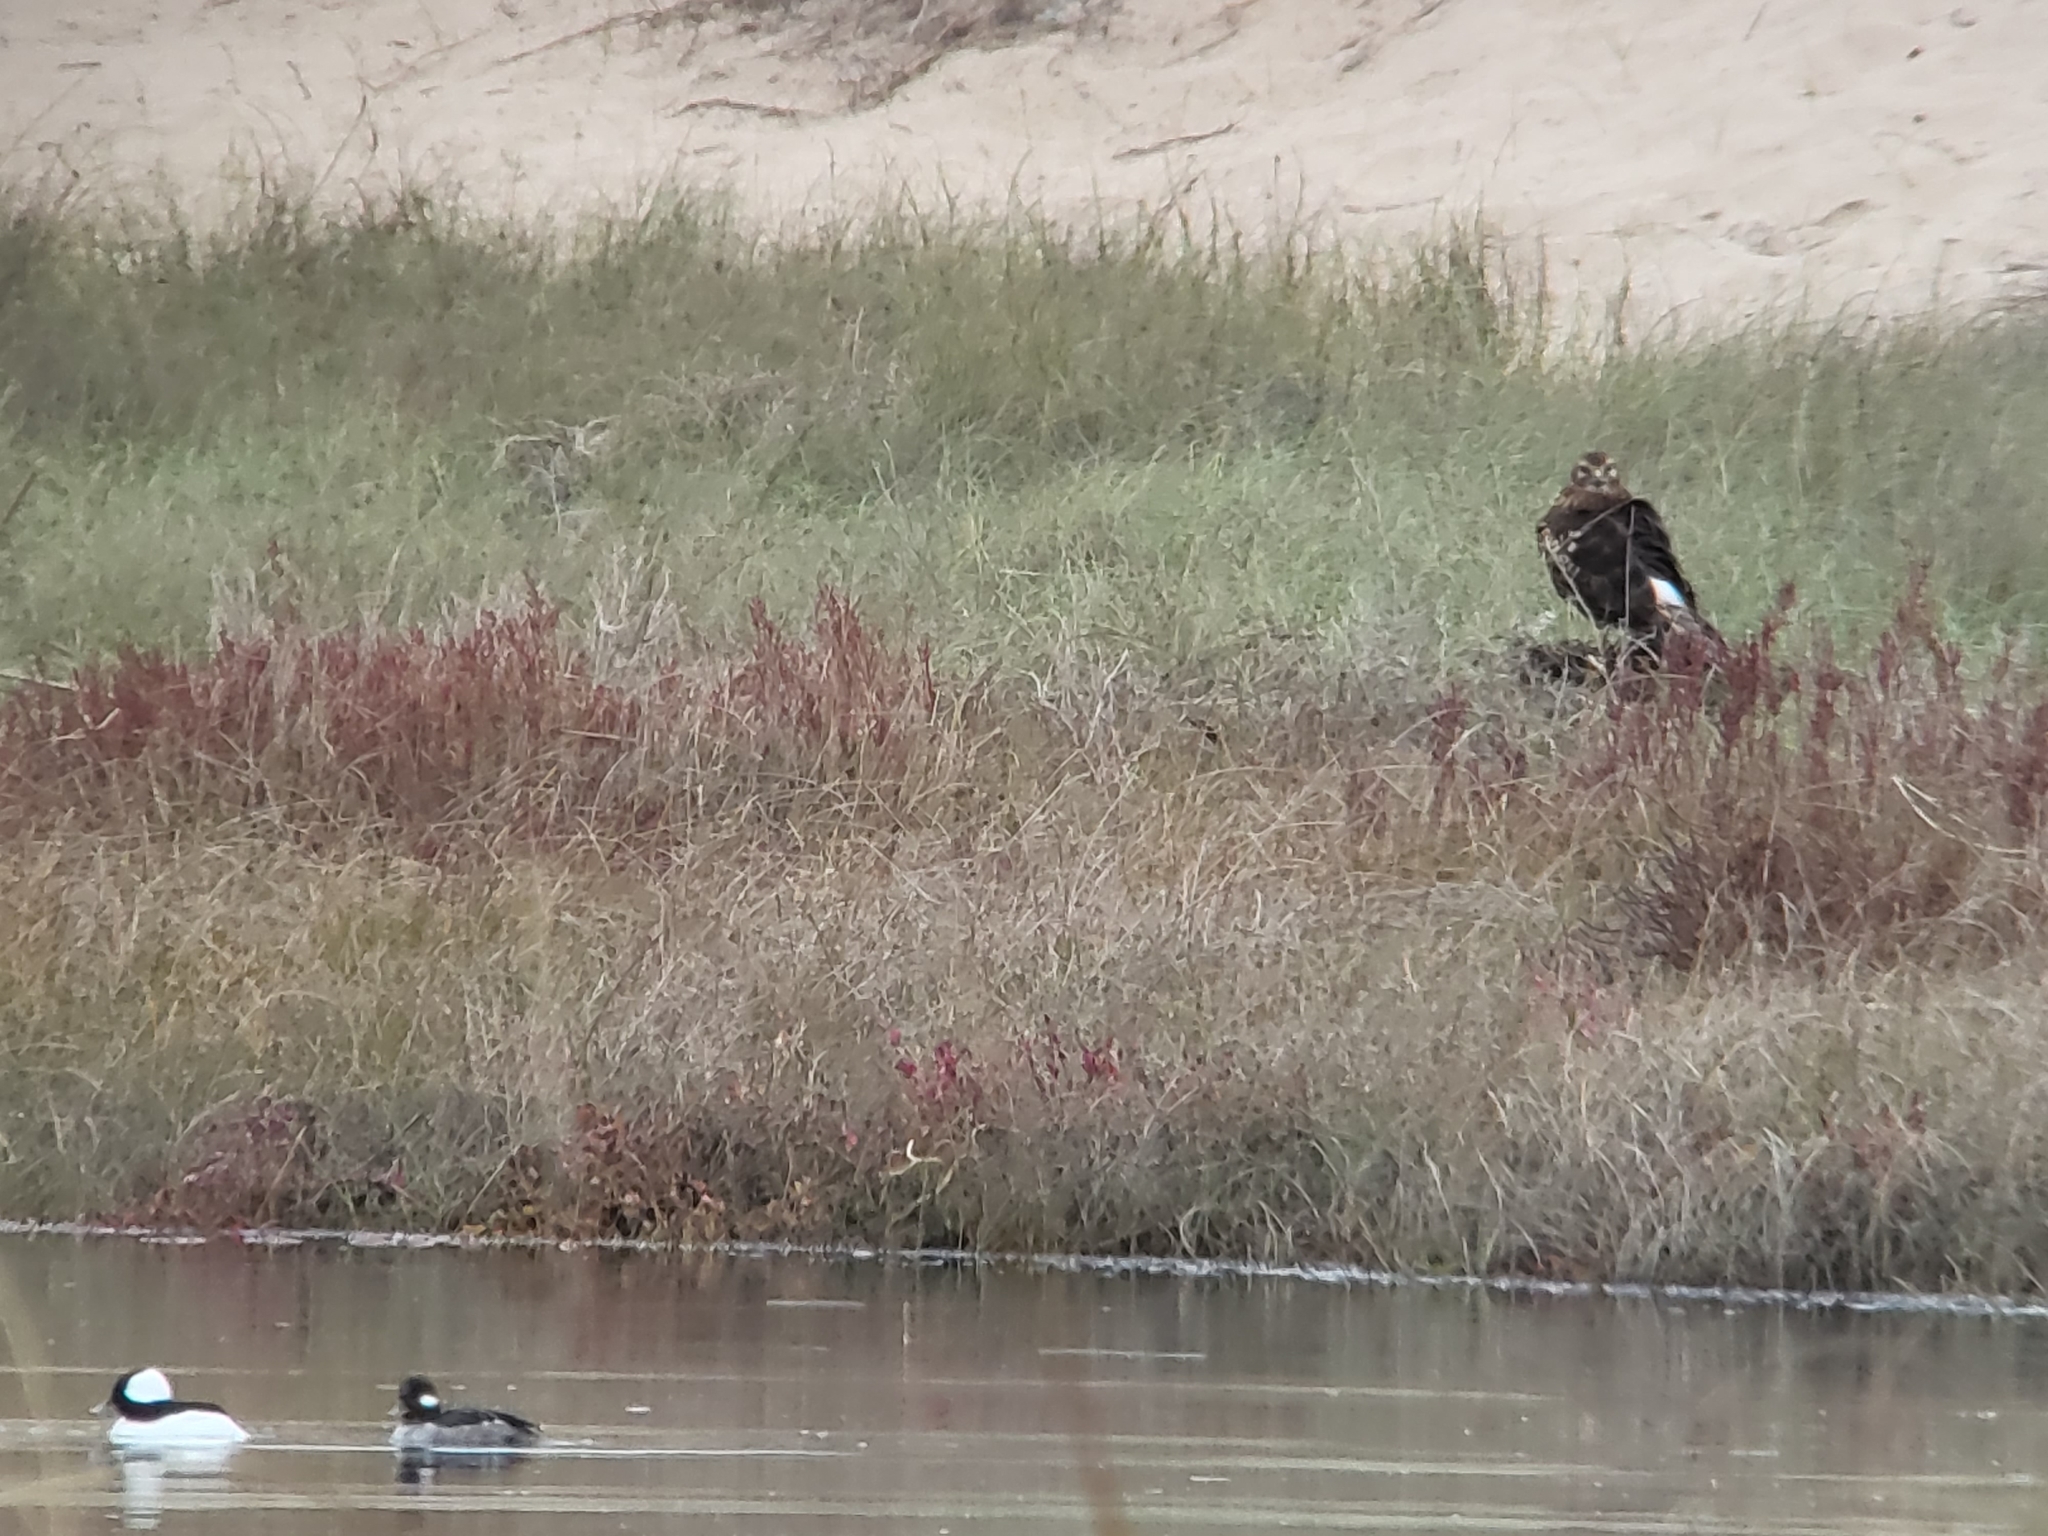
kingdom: Animalia
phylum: Chordata
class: Aves
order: Anseriformes
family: Anatidae
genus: Bucephala
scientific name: Bucephala albeola
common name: Bufflehead
